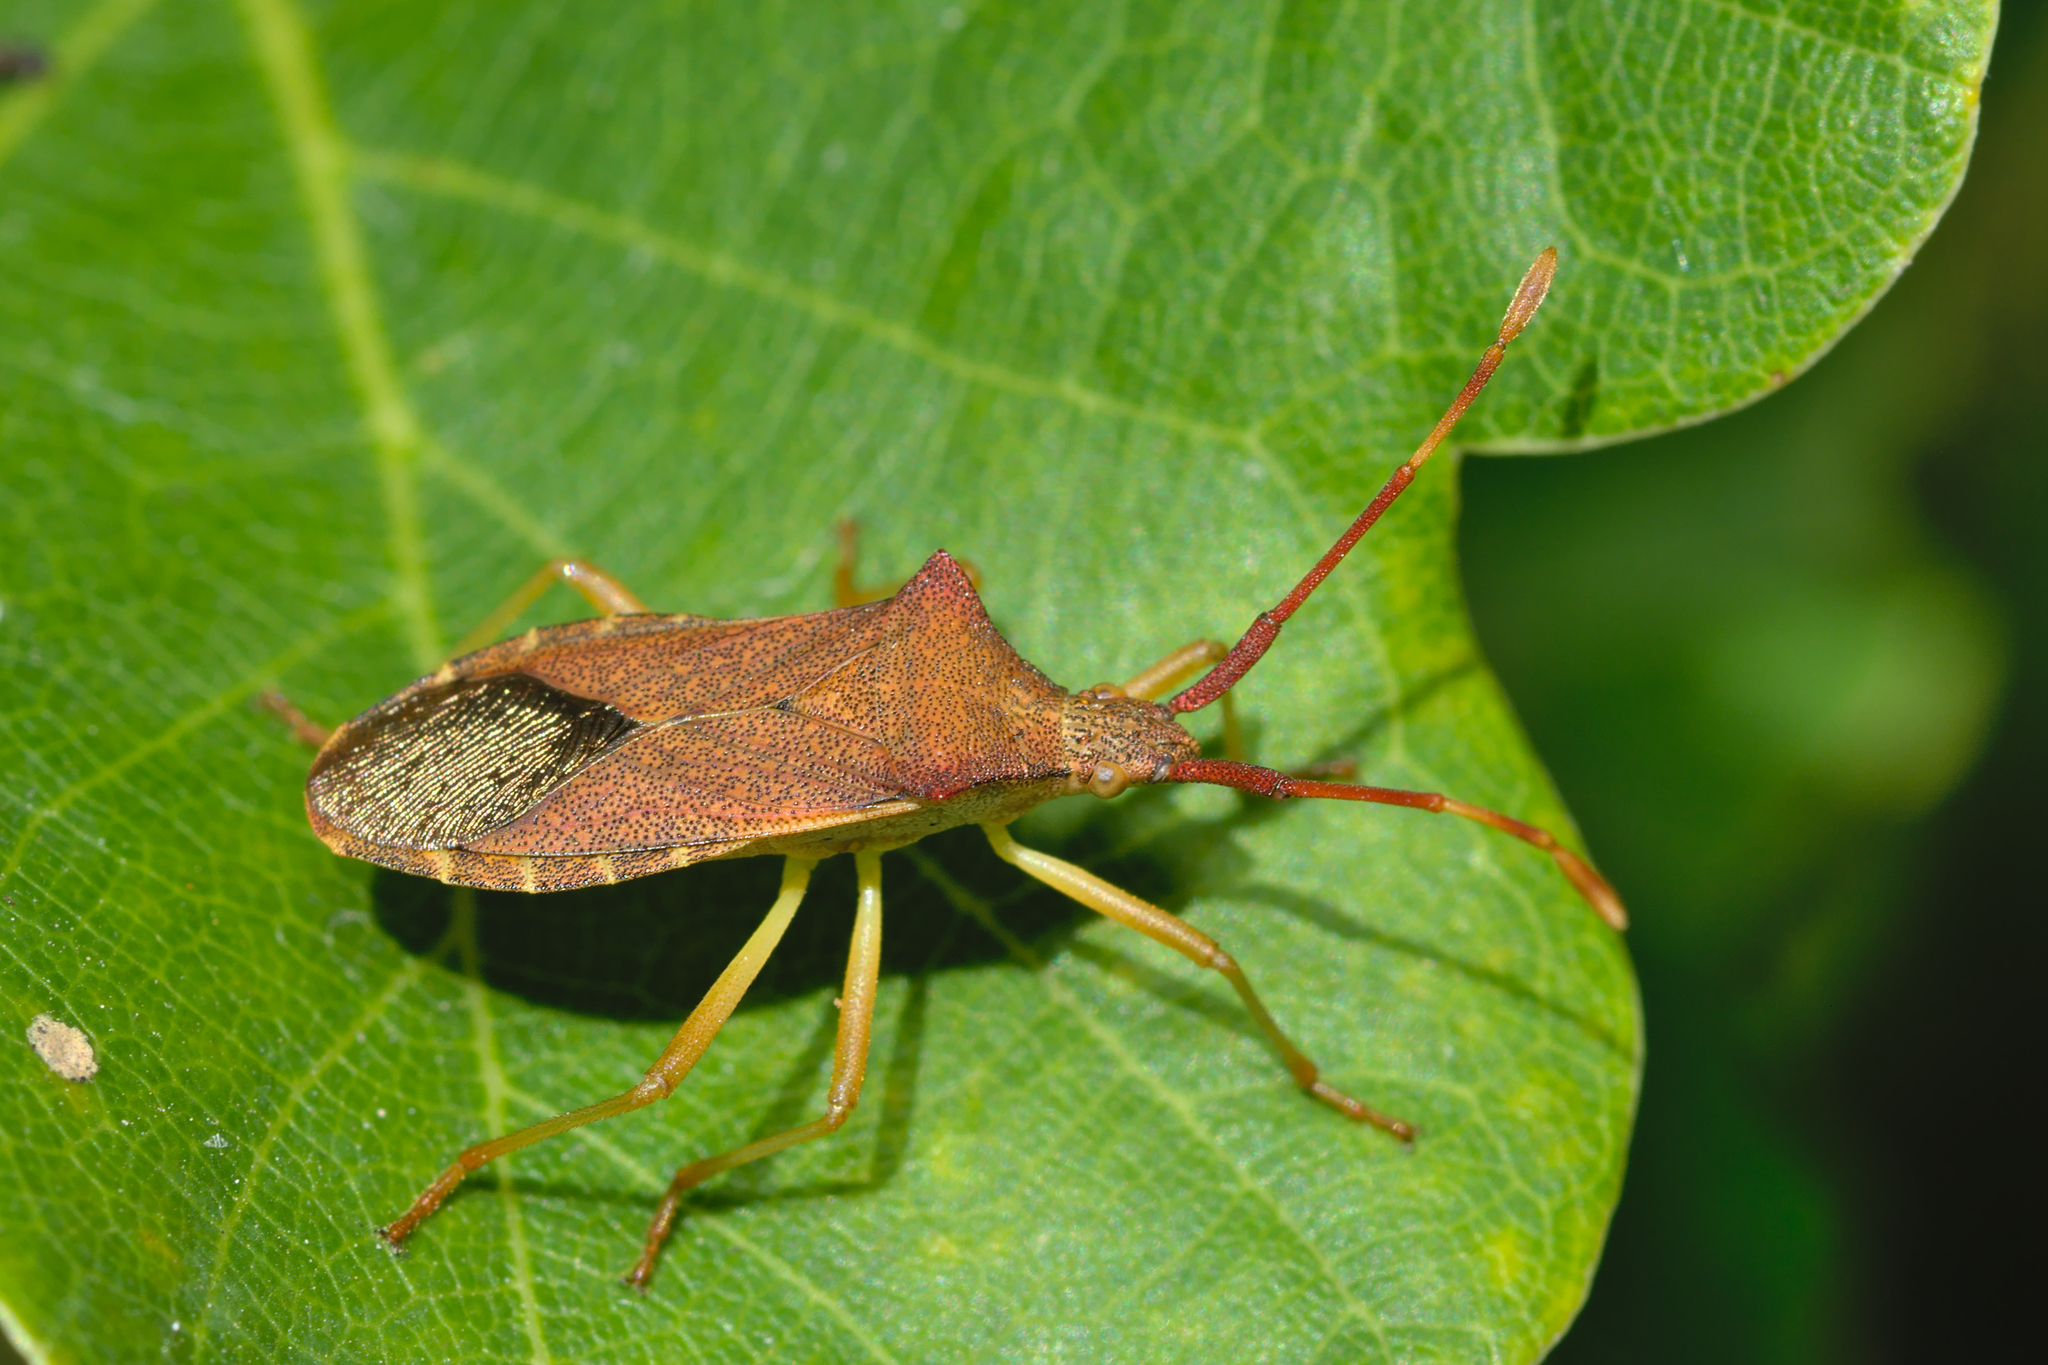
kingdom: Animalia
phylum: Arthropoda
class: Insecta
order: Hemiptera
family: Coreidae
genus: Gonocerus
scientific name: Gonocerus acuteangulatus
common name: Box bug
